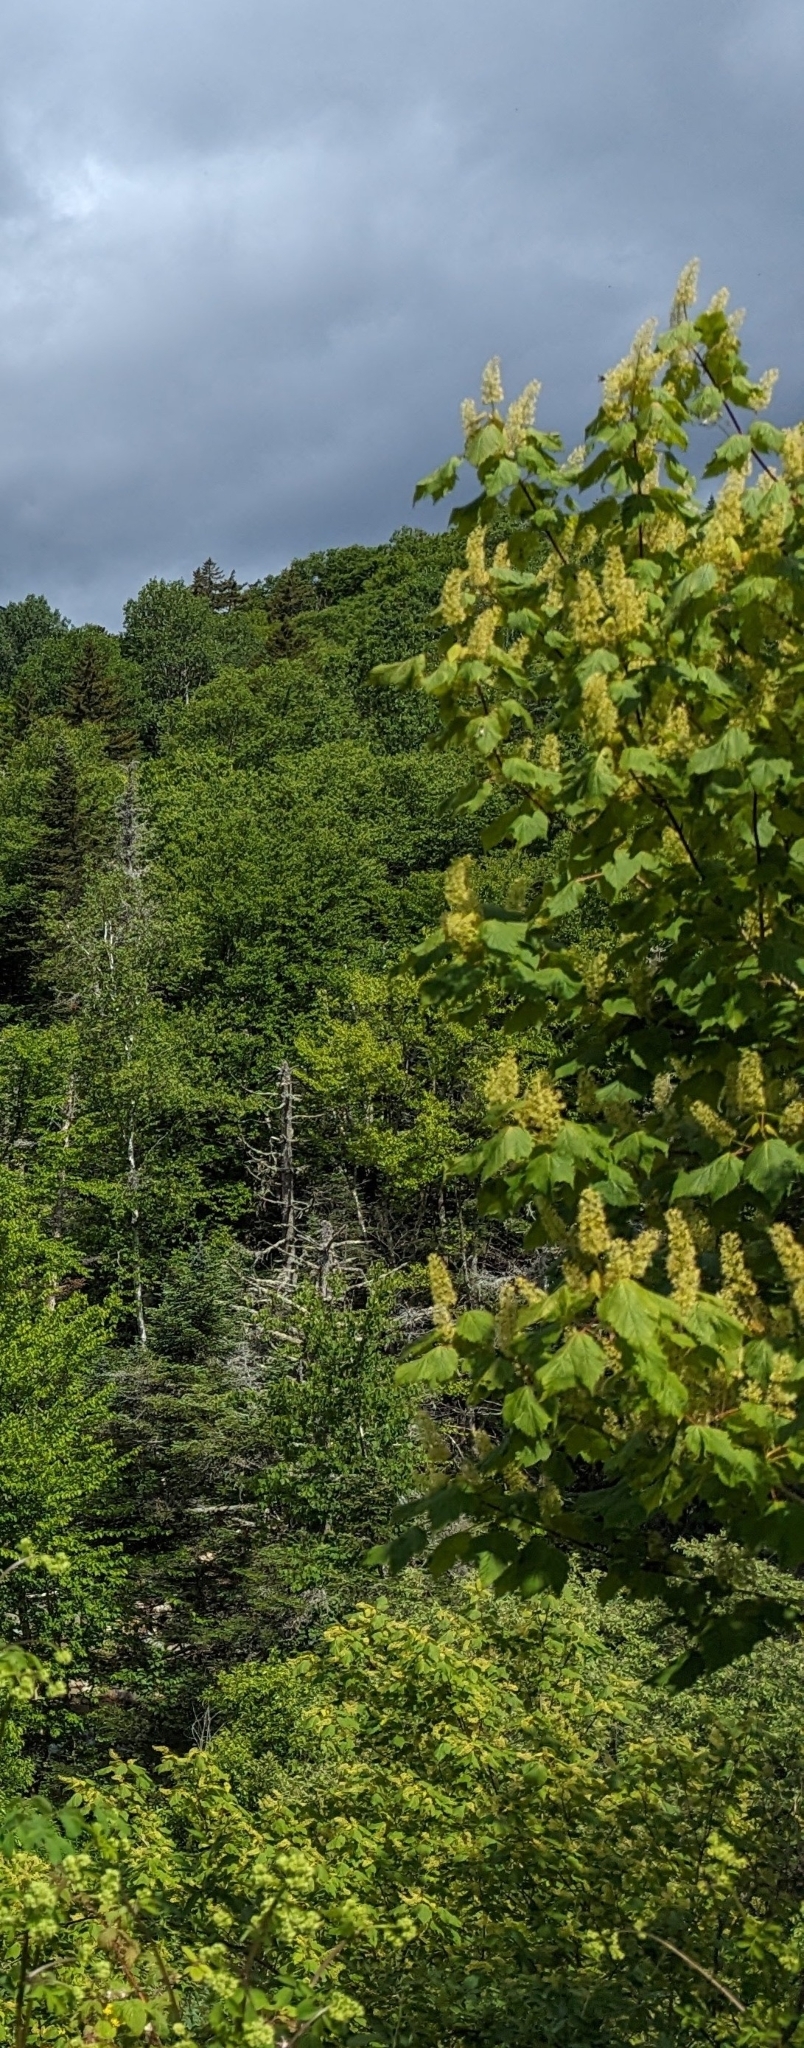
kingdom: Plantae
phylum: Tracheophyta
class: Magnoliopsida
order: Sapindales
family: Sapindaceae
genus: Acer
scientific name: Acer spicatum
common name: Mountain maple
